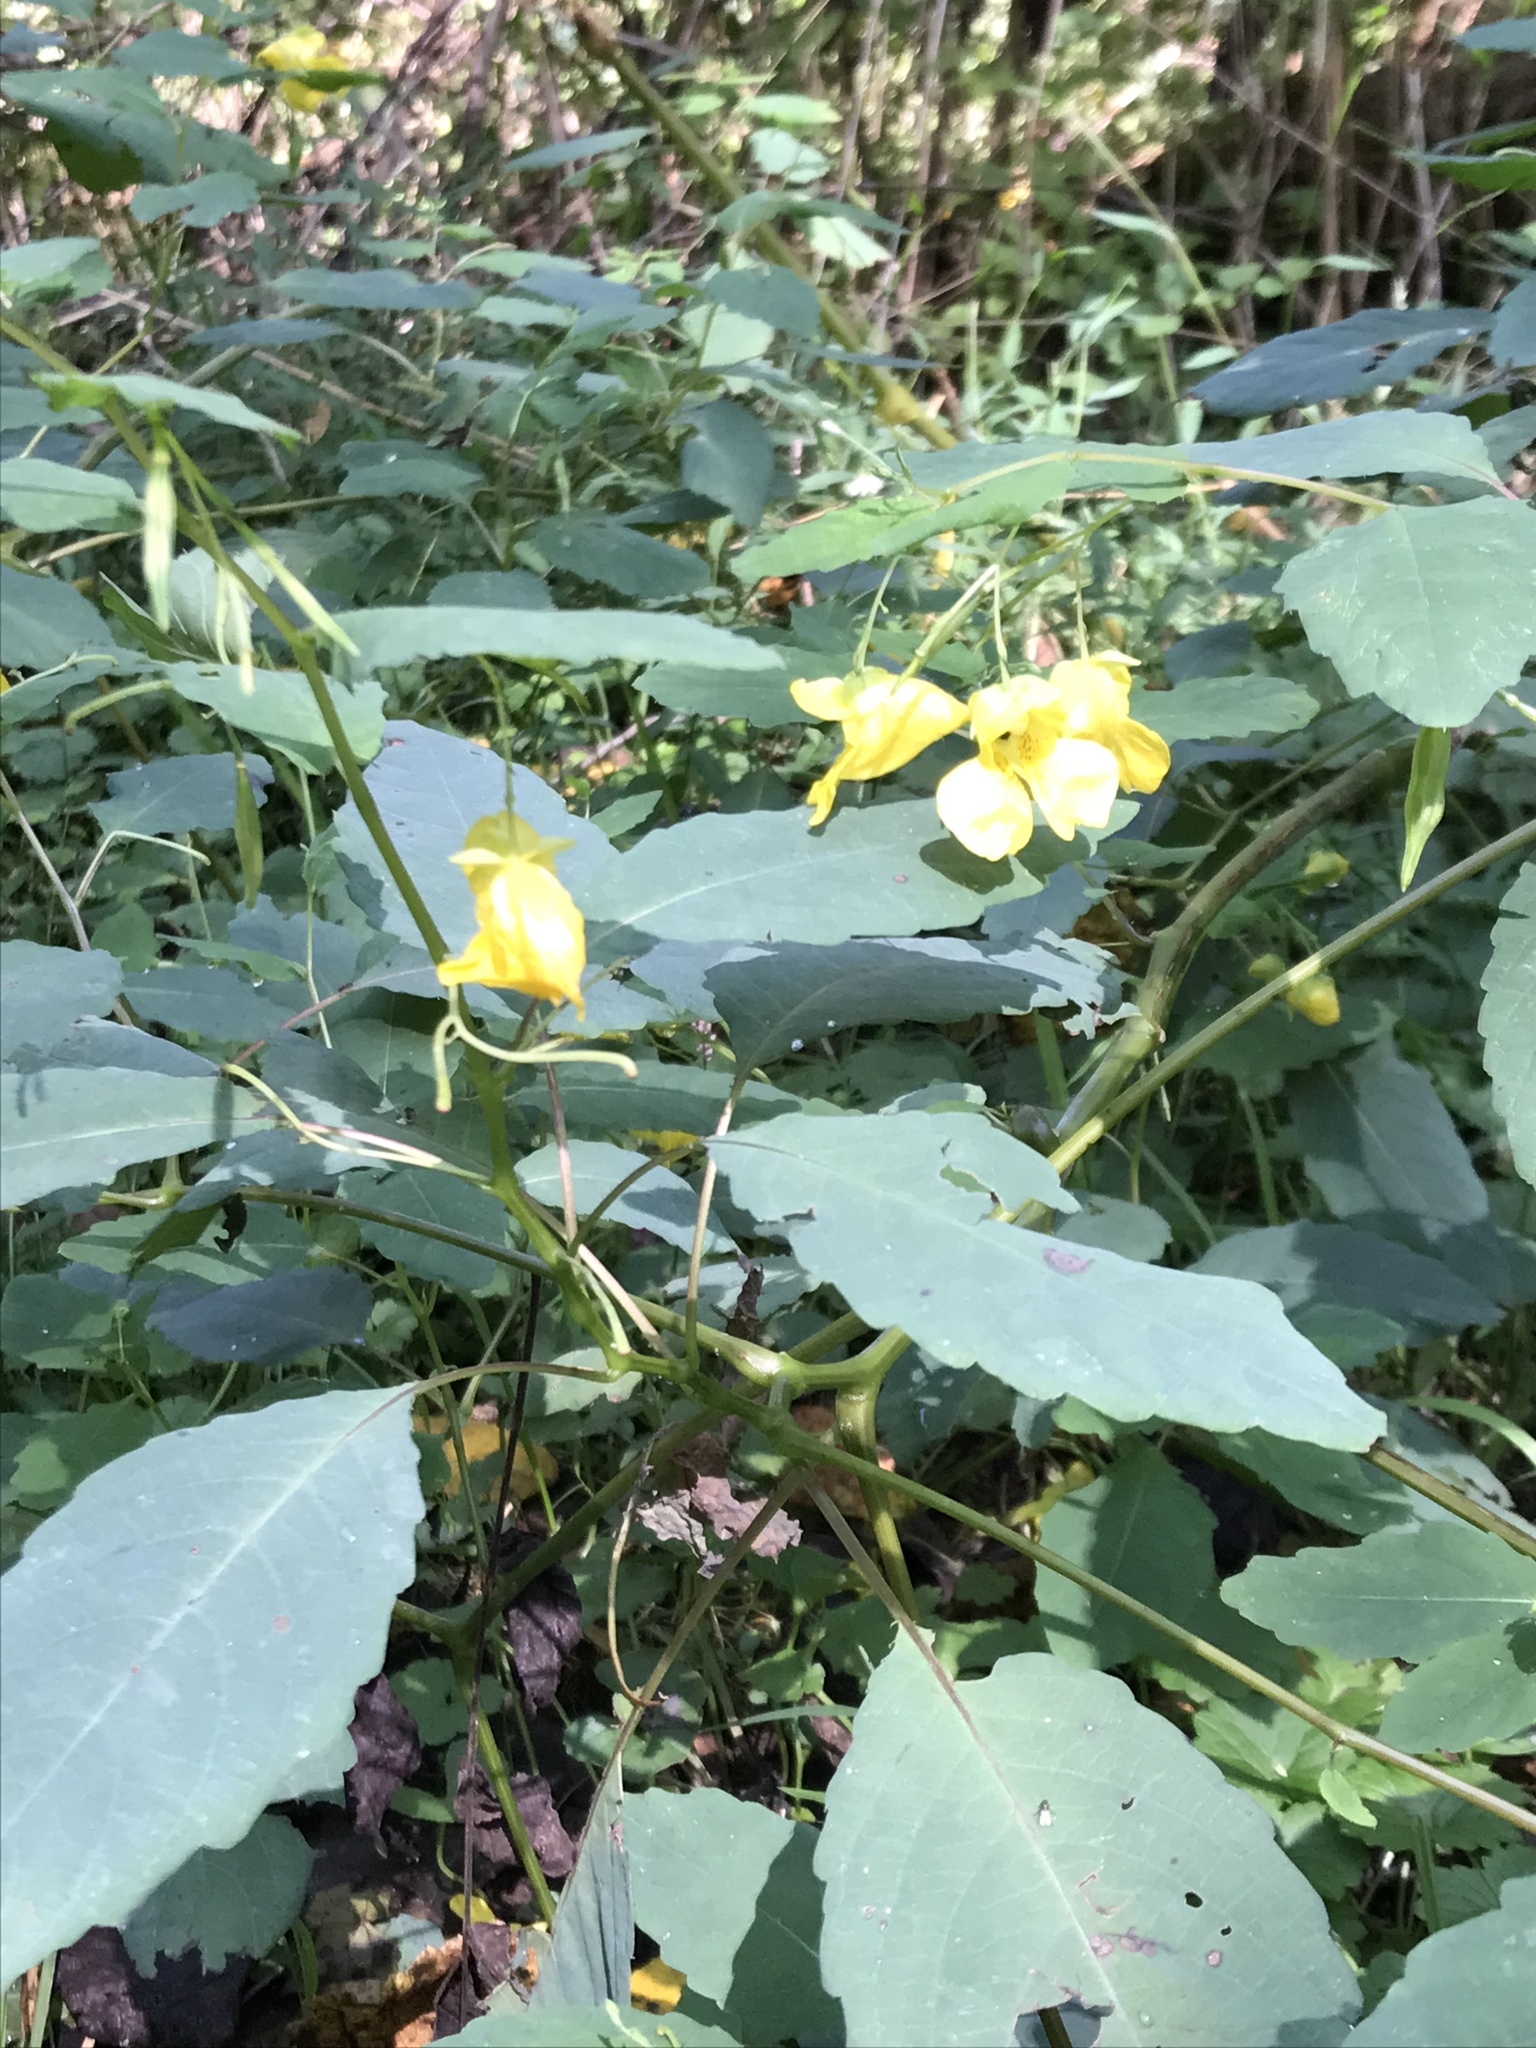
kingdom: Plantae
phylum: Tracheophyta
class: Magnoliopsida
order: Ericales
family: Balsaminaceae
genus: Impatiens
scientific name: Impatiens pallida
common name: Pale snapweed
